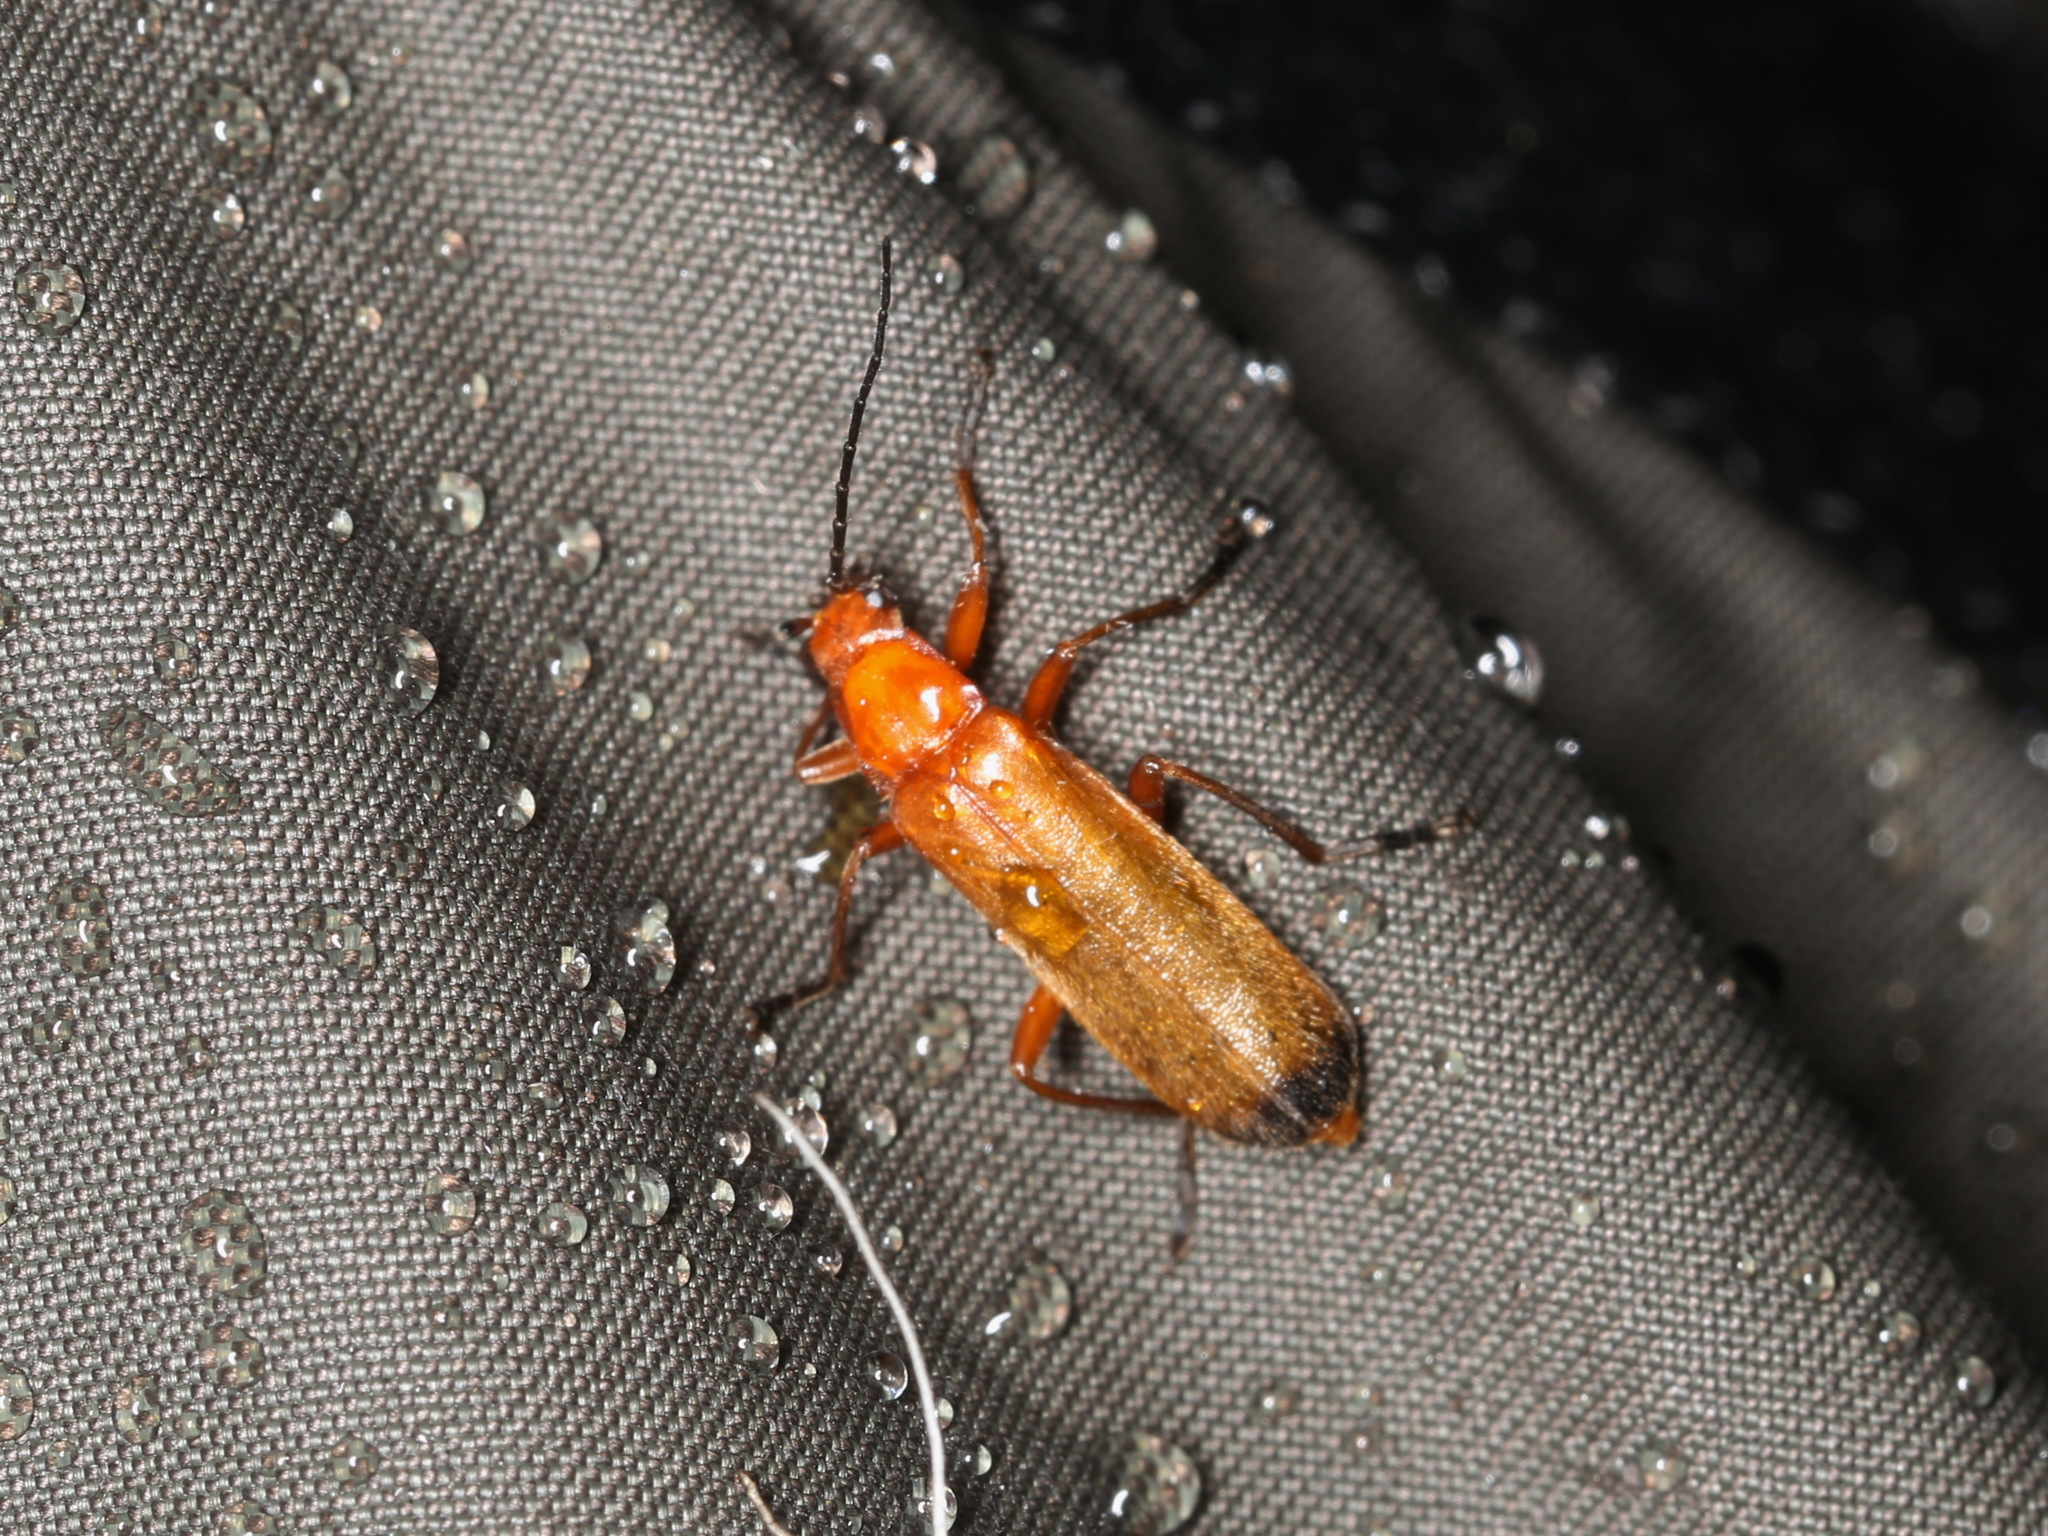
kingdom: Animalia
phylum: Arthropoda
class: Insecta
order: Coleoptera
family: Cantharidae
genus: Rhagonycha
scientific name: Rhagonycha fulva
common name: Common red soldier beetle
